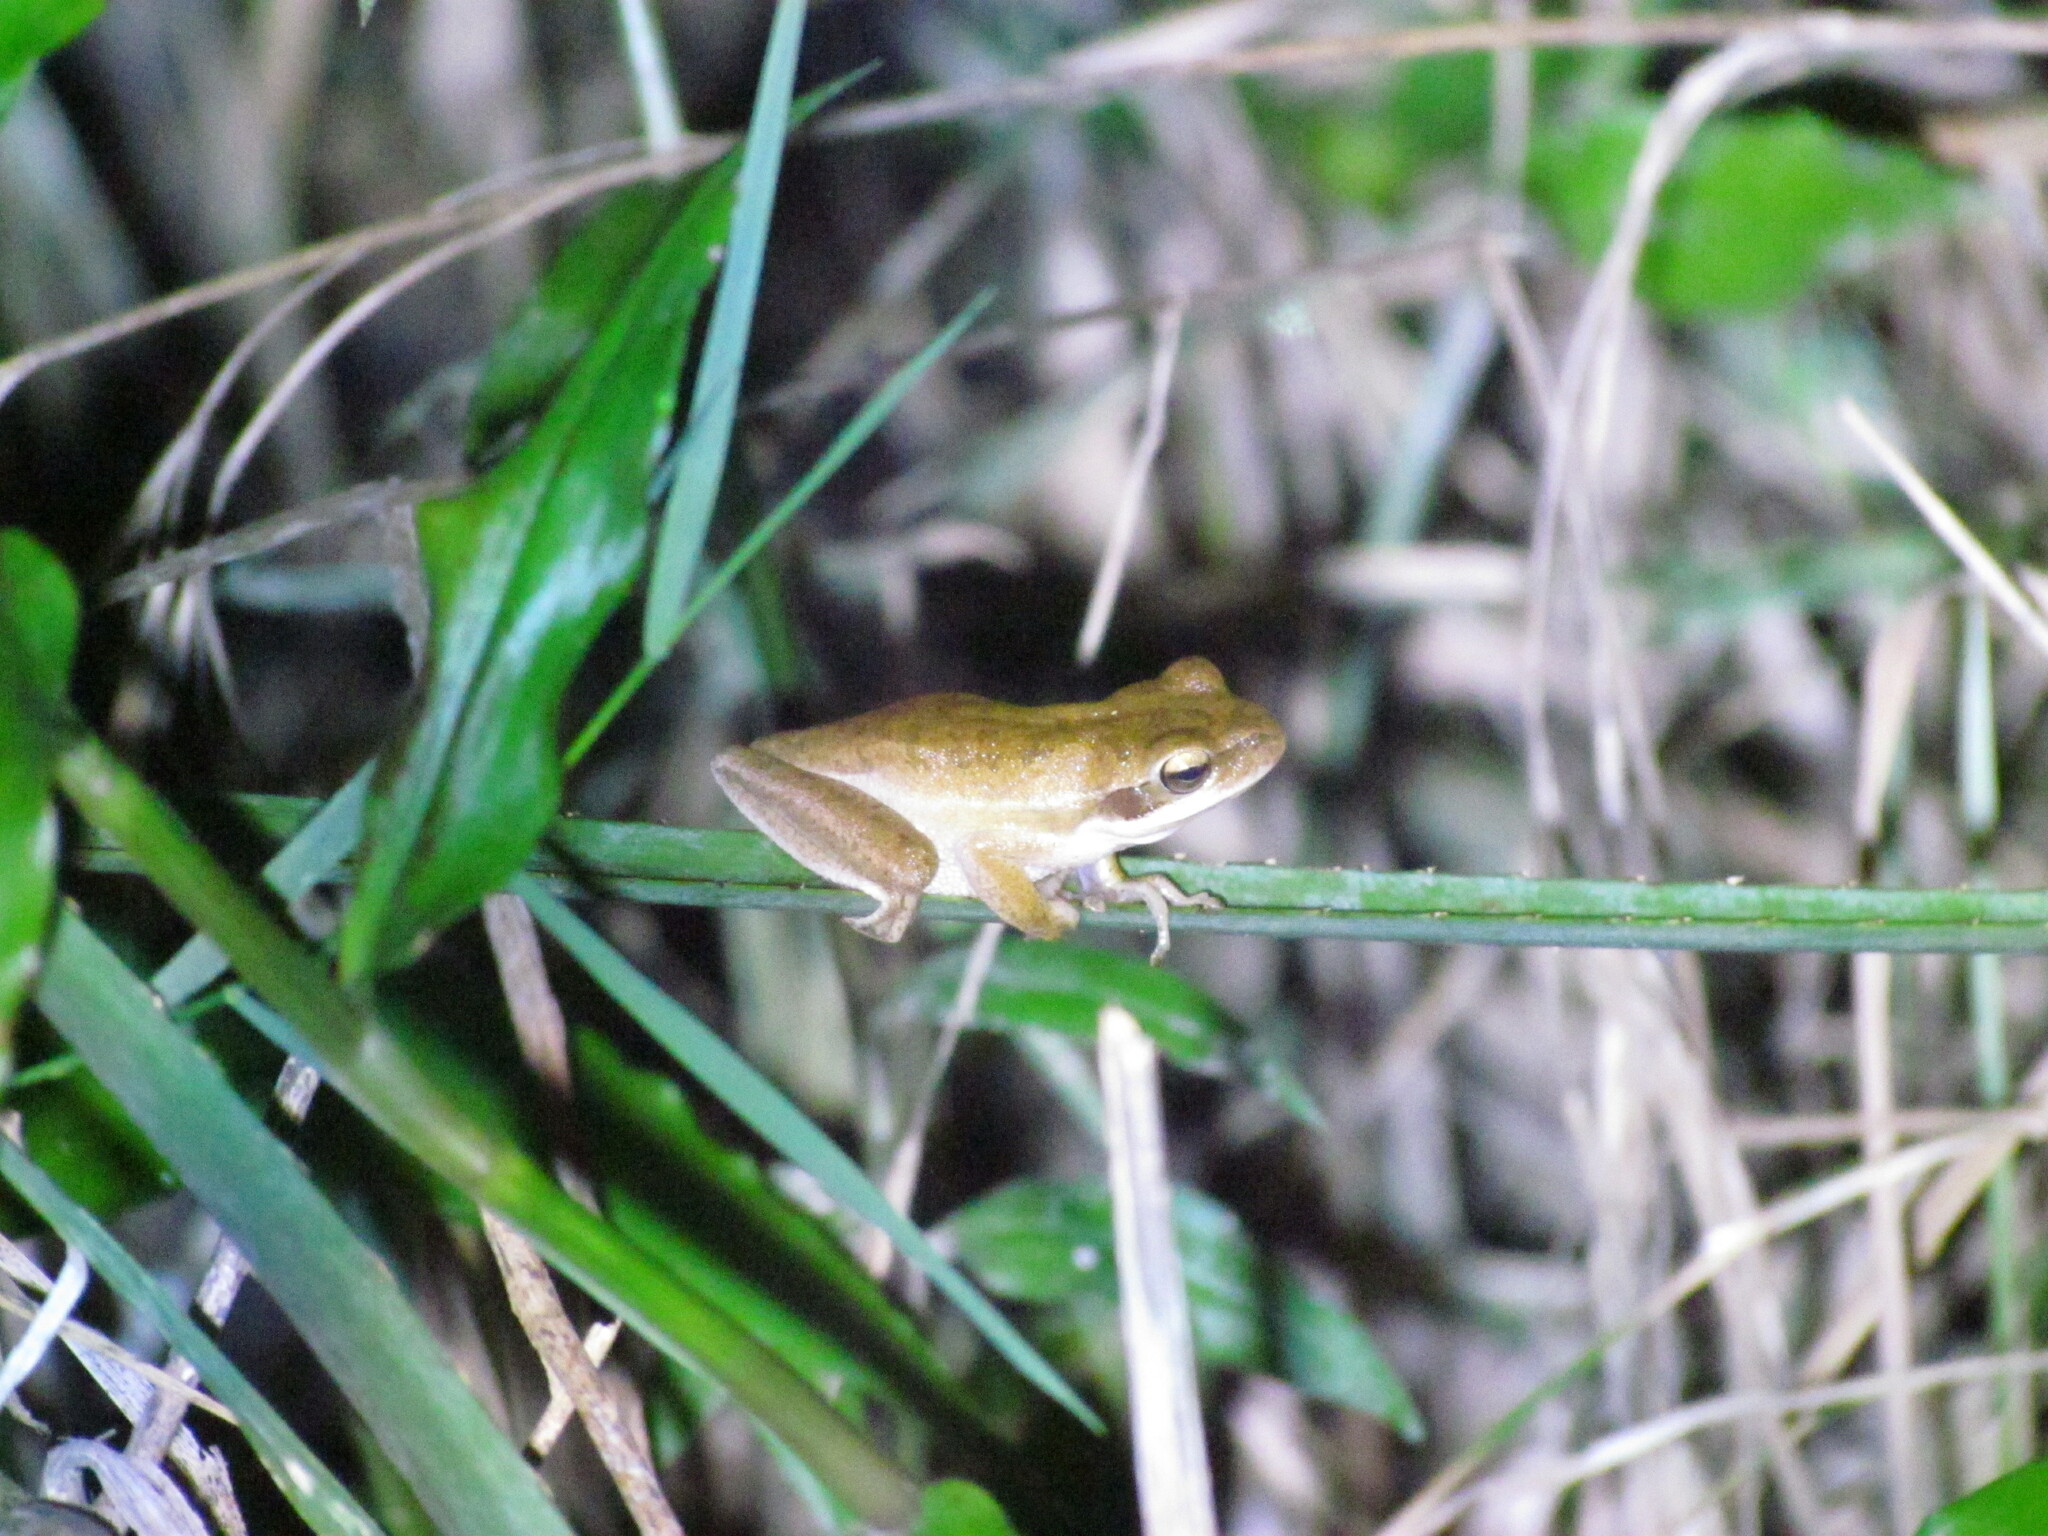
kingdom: Animalia
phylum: Chordata
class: Amphibia
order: Anura
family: Hylidae
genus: Boana
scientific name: Boana pulchella
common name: Montevideo treefrog
